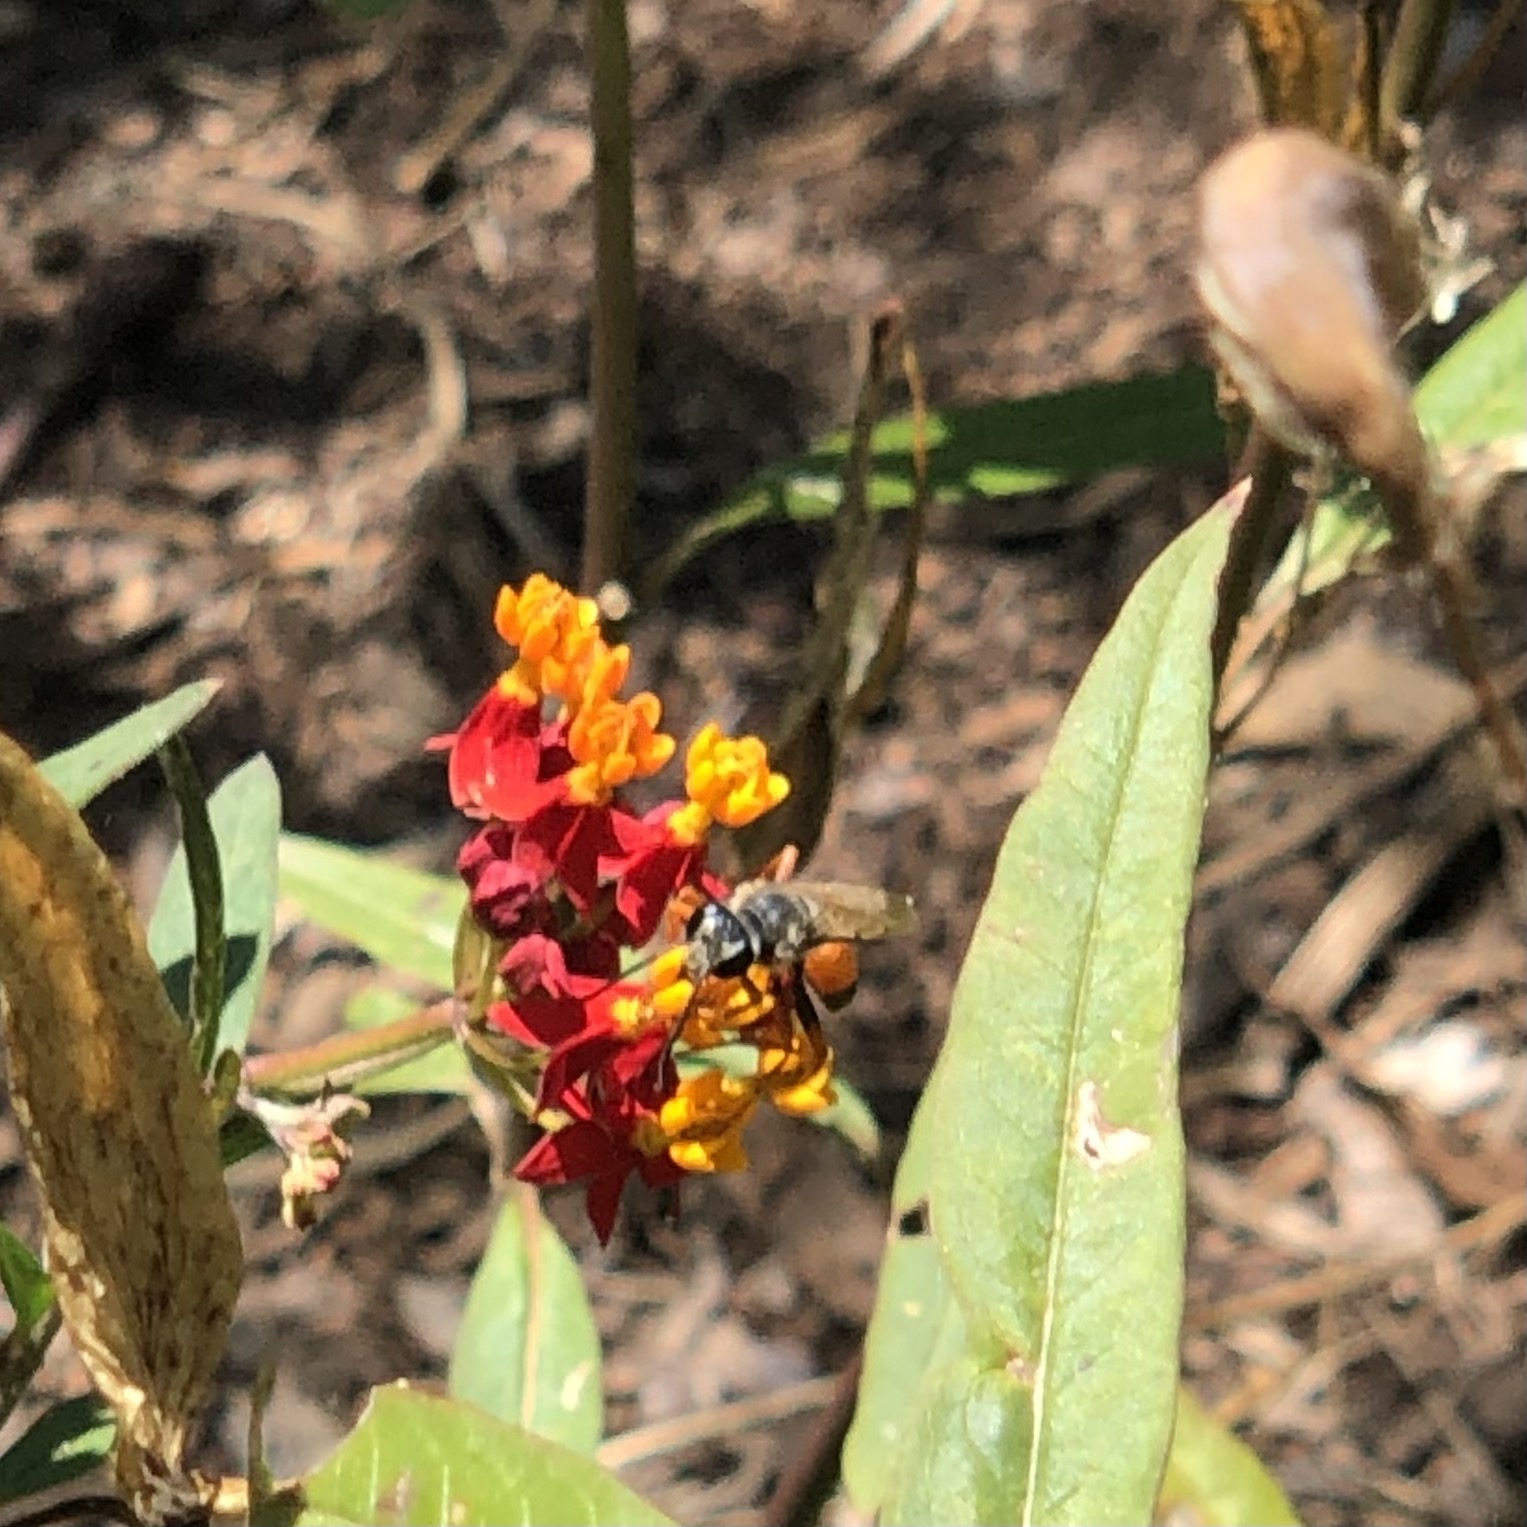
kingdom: Animalia
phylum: Arthropoda
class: Insecta
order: Hymenoptera
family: Sphecidae
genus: Sphex
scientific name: Sphex ichneumoneus
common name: Great golden digger wasp
